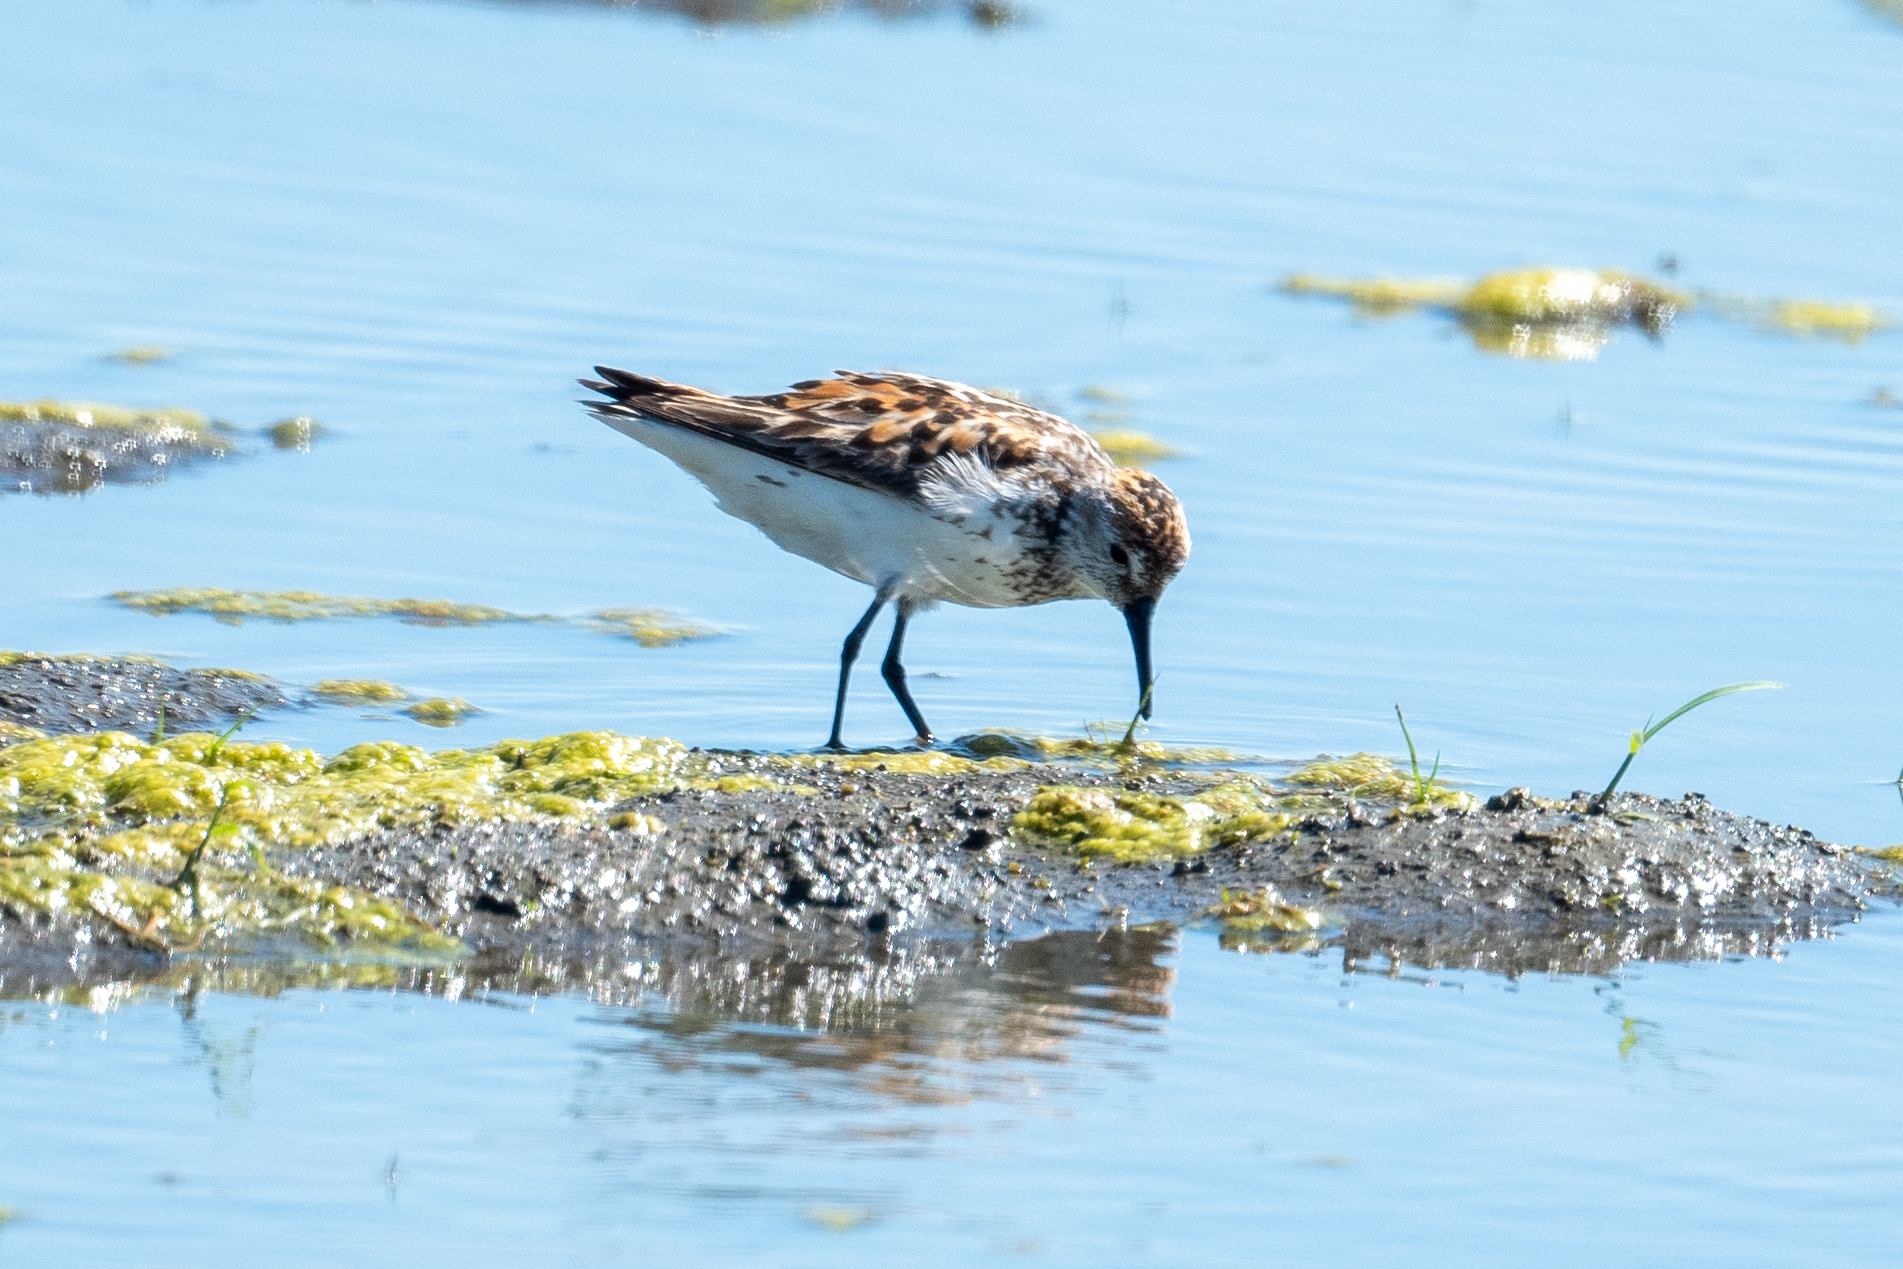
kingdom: Animalia
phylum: Chordata
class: Aves
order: Charadriiformes
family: Scolopacidae
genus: Calidris
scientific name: Calidris mauri
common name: Western sandpiper
